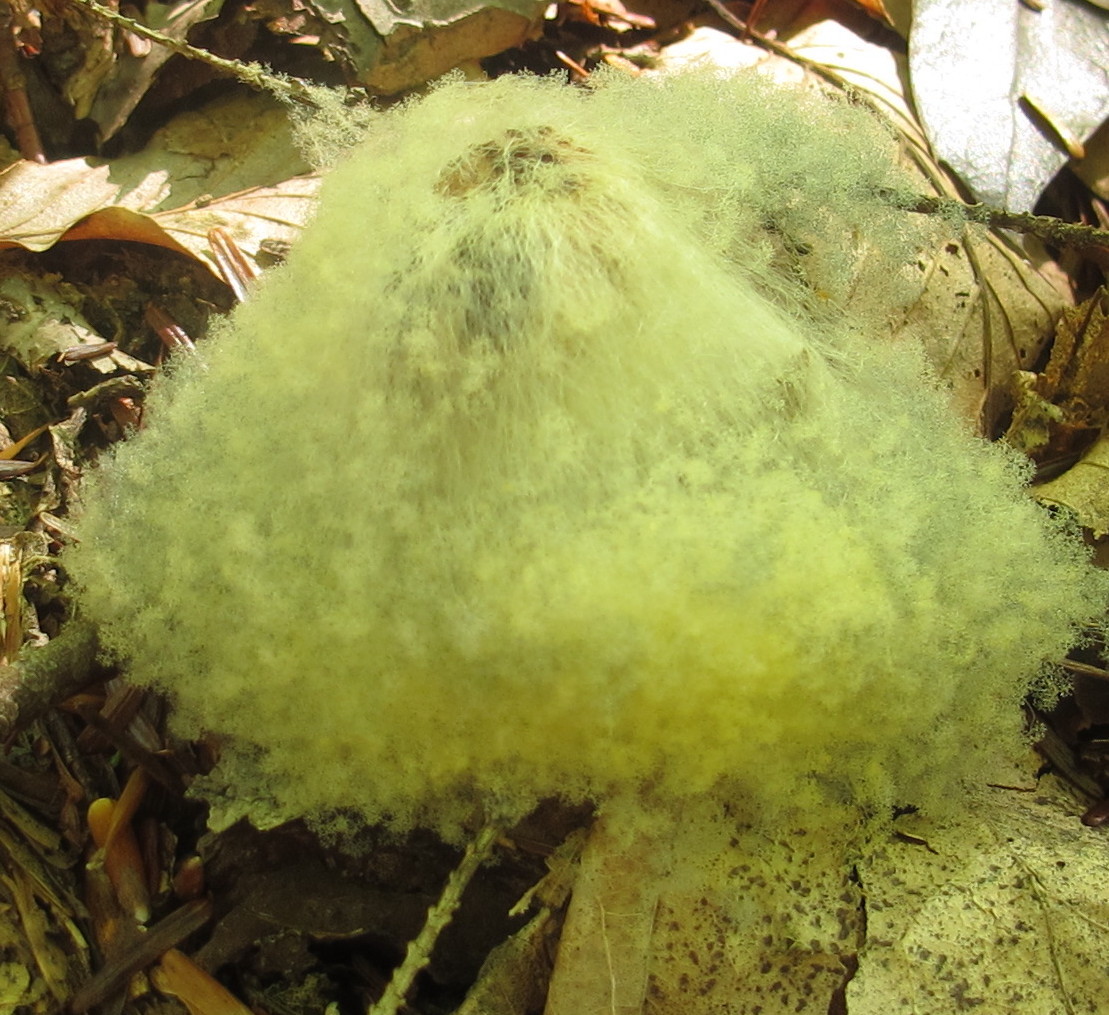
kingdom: Fungi
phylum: Mucoromycota
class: Mucoromycetes
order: Mucorales
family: Rhizopodaceae
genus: Syzygites
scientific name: Syzygites megalocarpus
